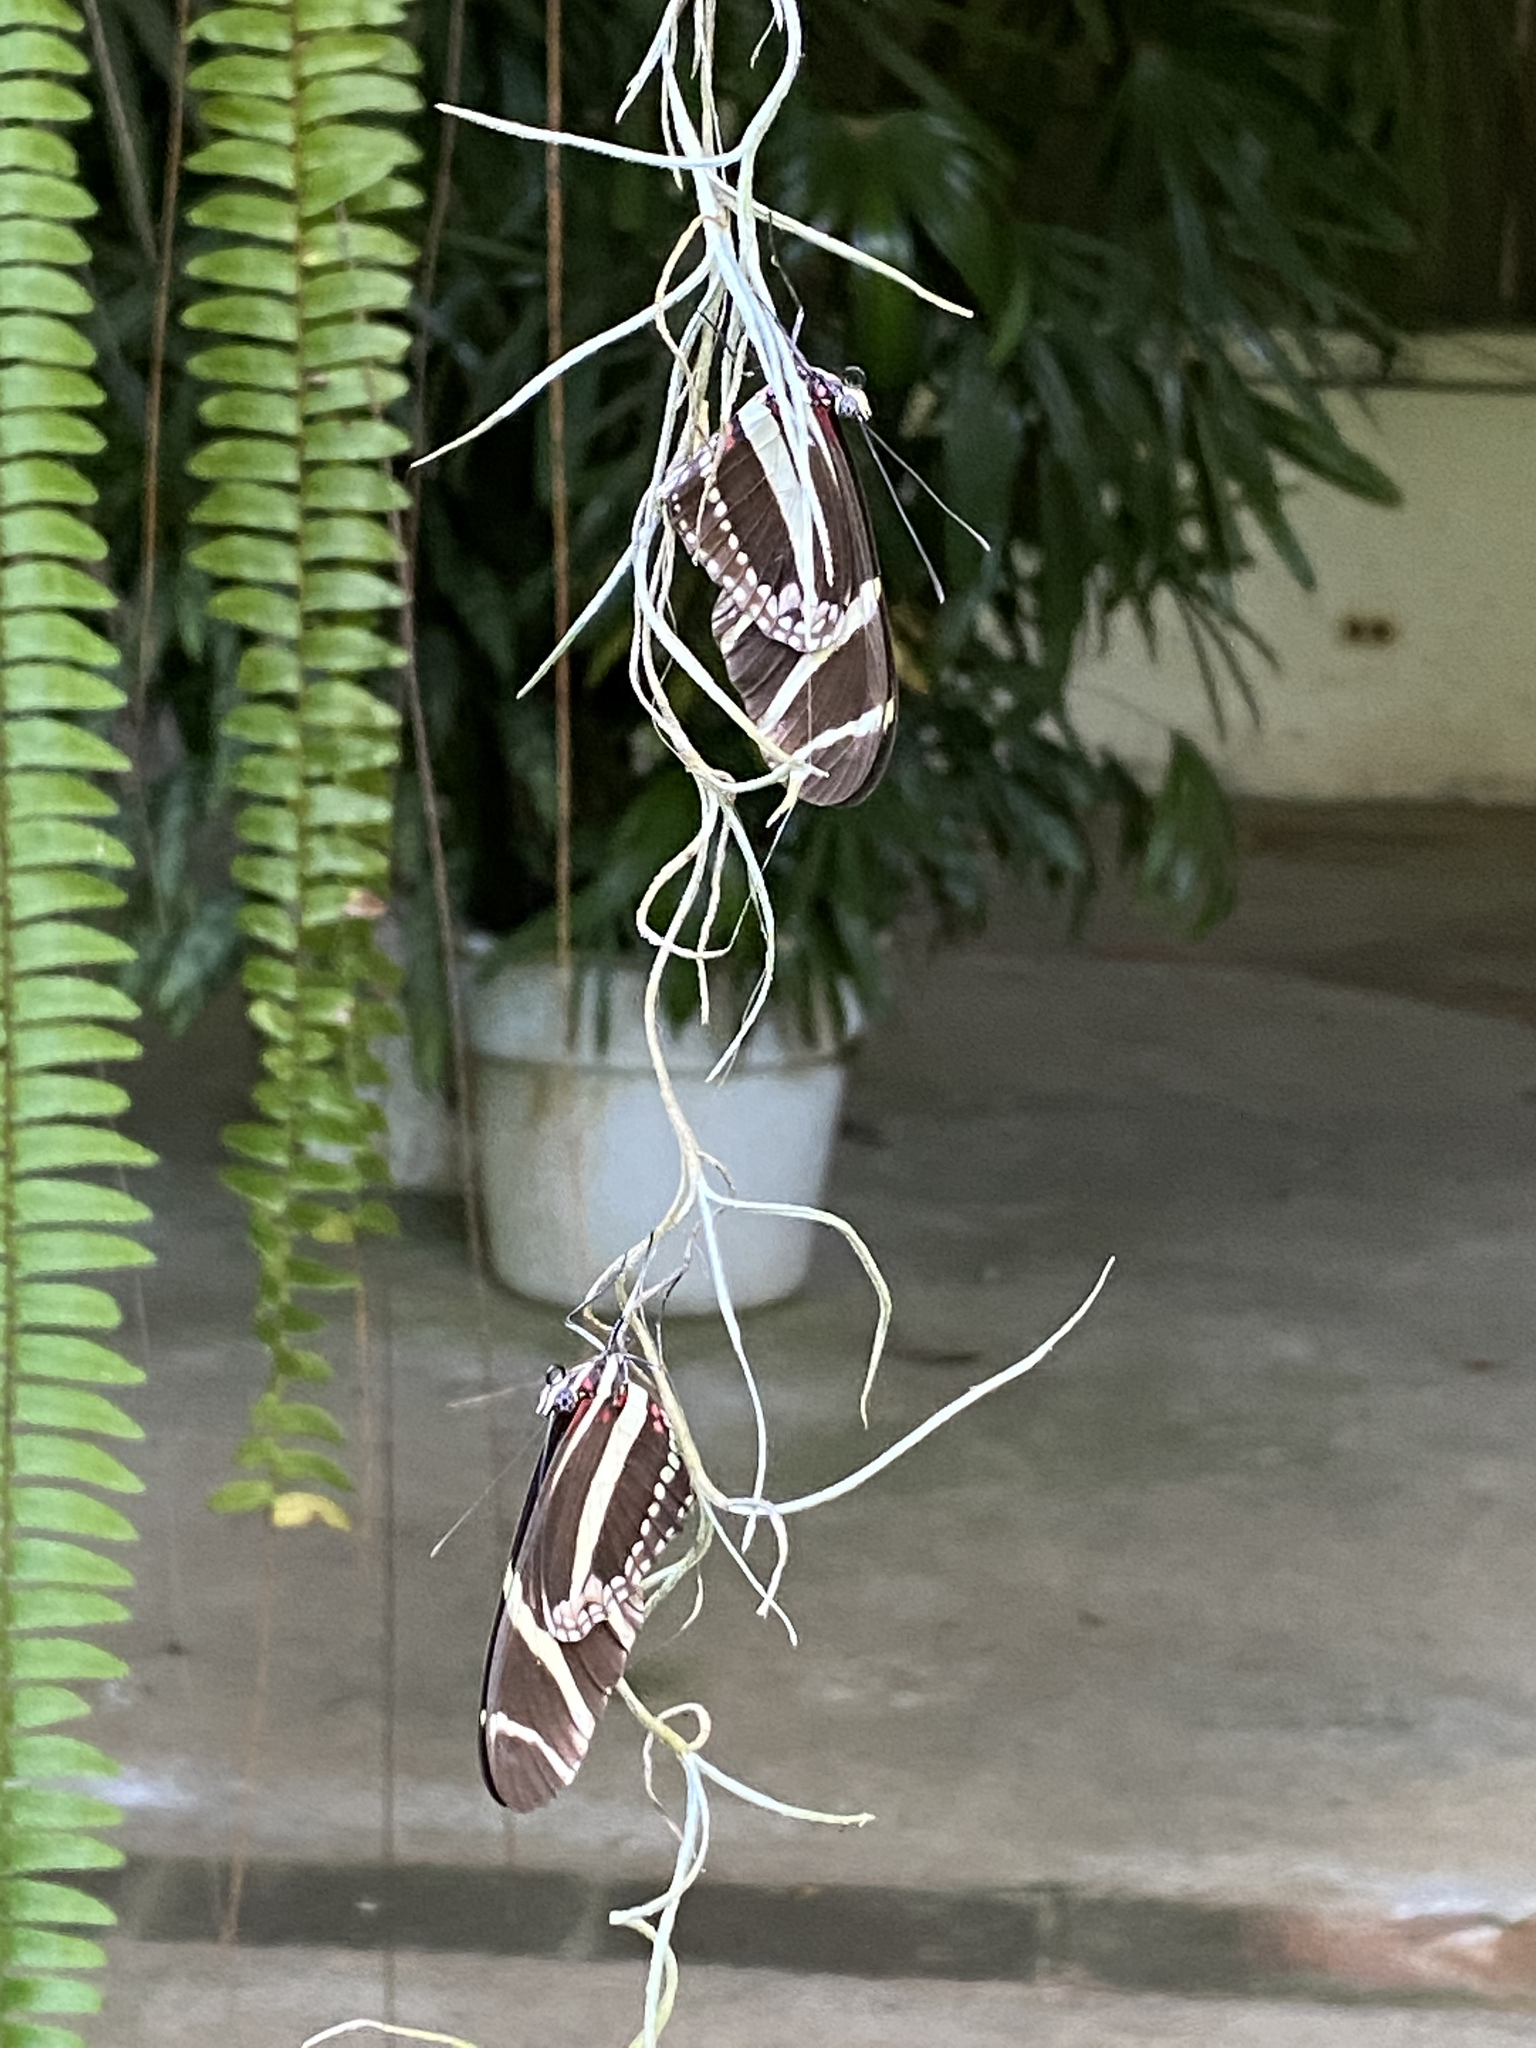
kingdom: Animalia
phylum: Arthropoda
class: Insecta
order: Lepidoptera
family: Nymphalidae
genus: Heliconius
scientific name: Heliconius charithonia
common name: Zebra long wing
